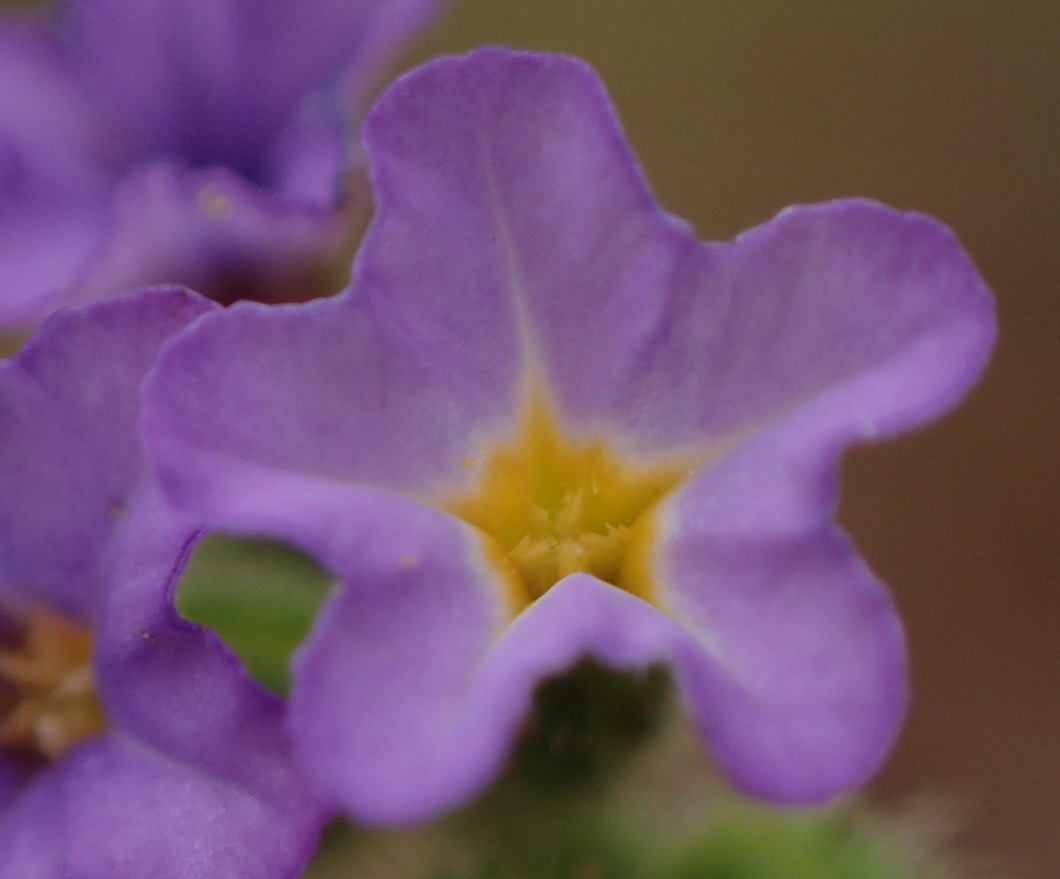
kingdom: Plantae
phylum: Tracheophyta
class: Magnoliopsida
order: Boraginales
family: Heliotropiaceae
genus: Heliotropium
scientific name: Heliotropium amplexicaule
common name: Clasping heliotrope
